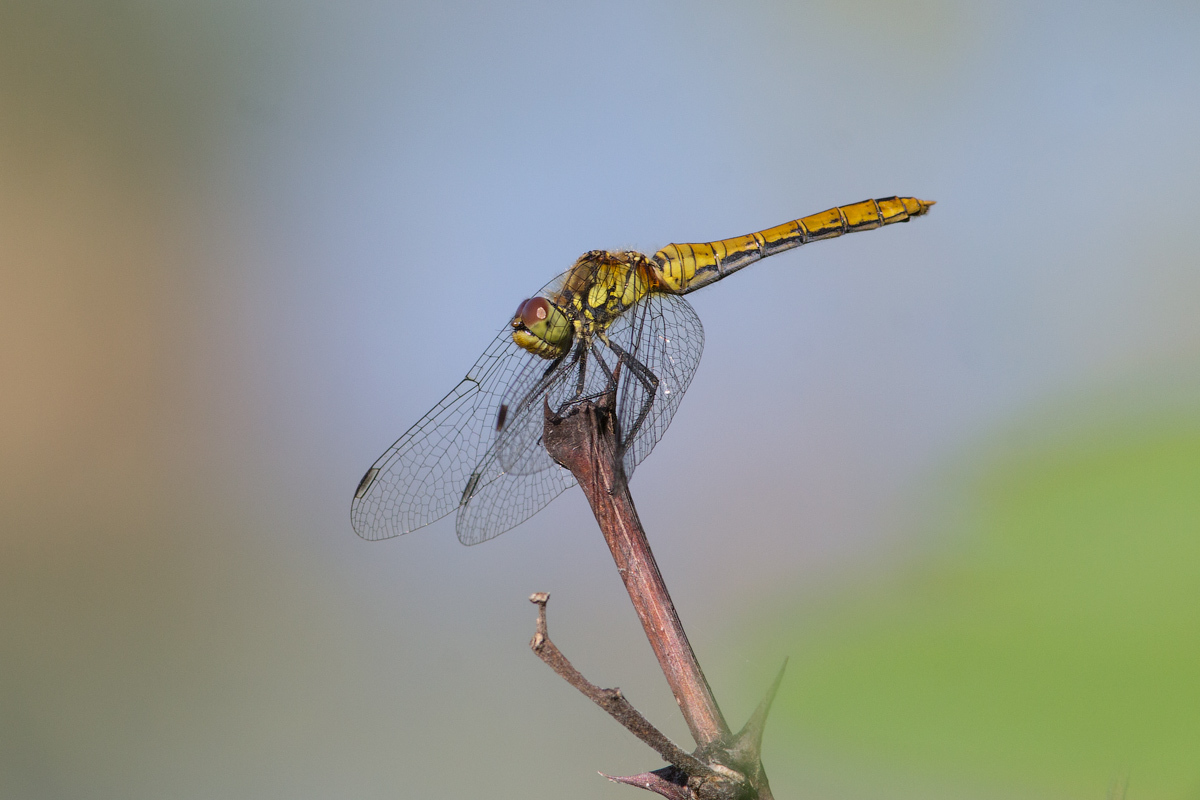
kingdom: Animalia
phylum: Arthropoda
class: Insecta
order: Odonata
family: Libellulidae
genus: Sympetrum
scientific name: Sympetrum sanguineum
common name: Ruddy darter
